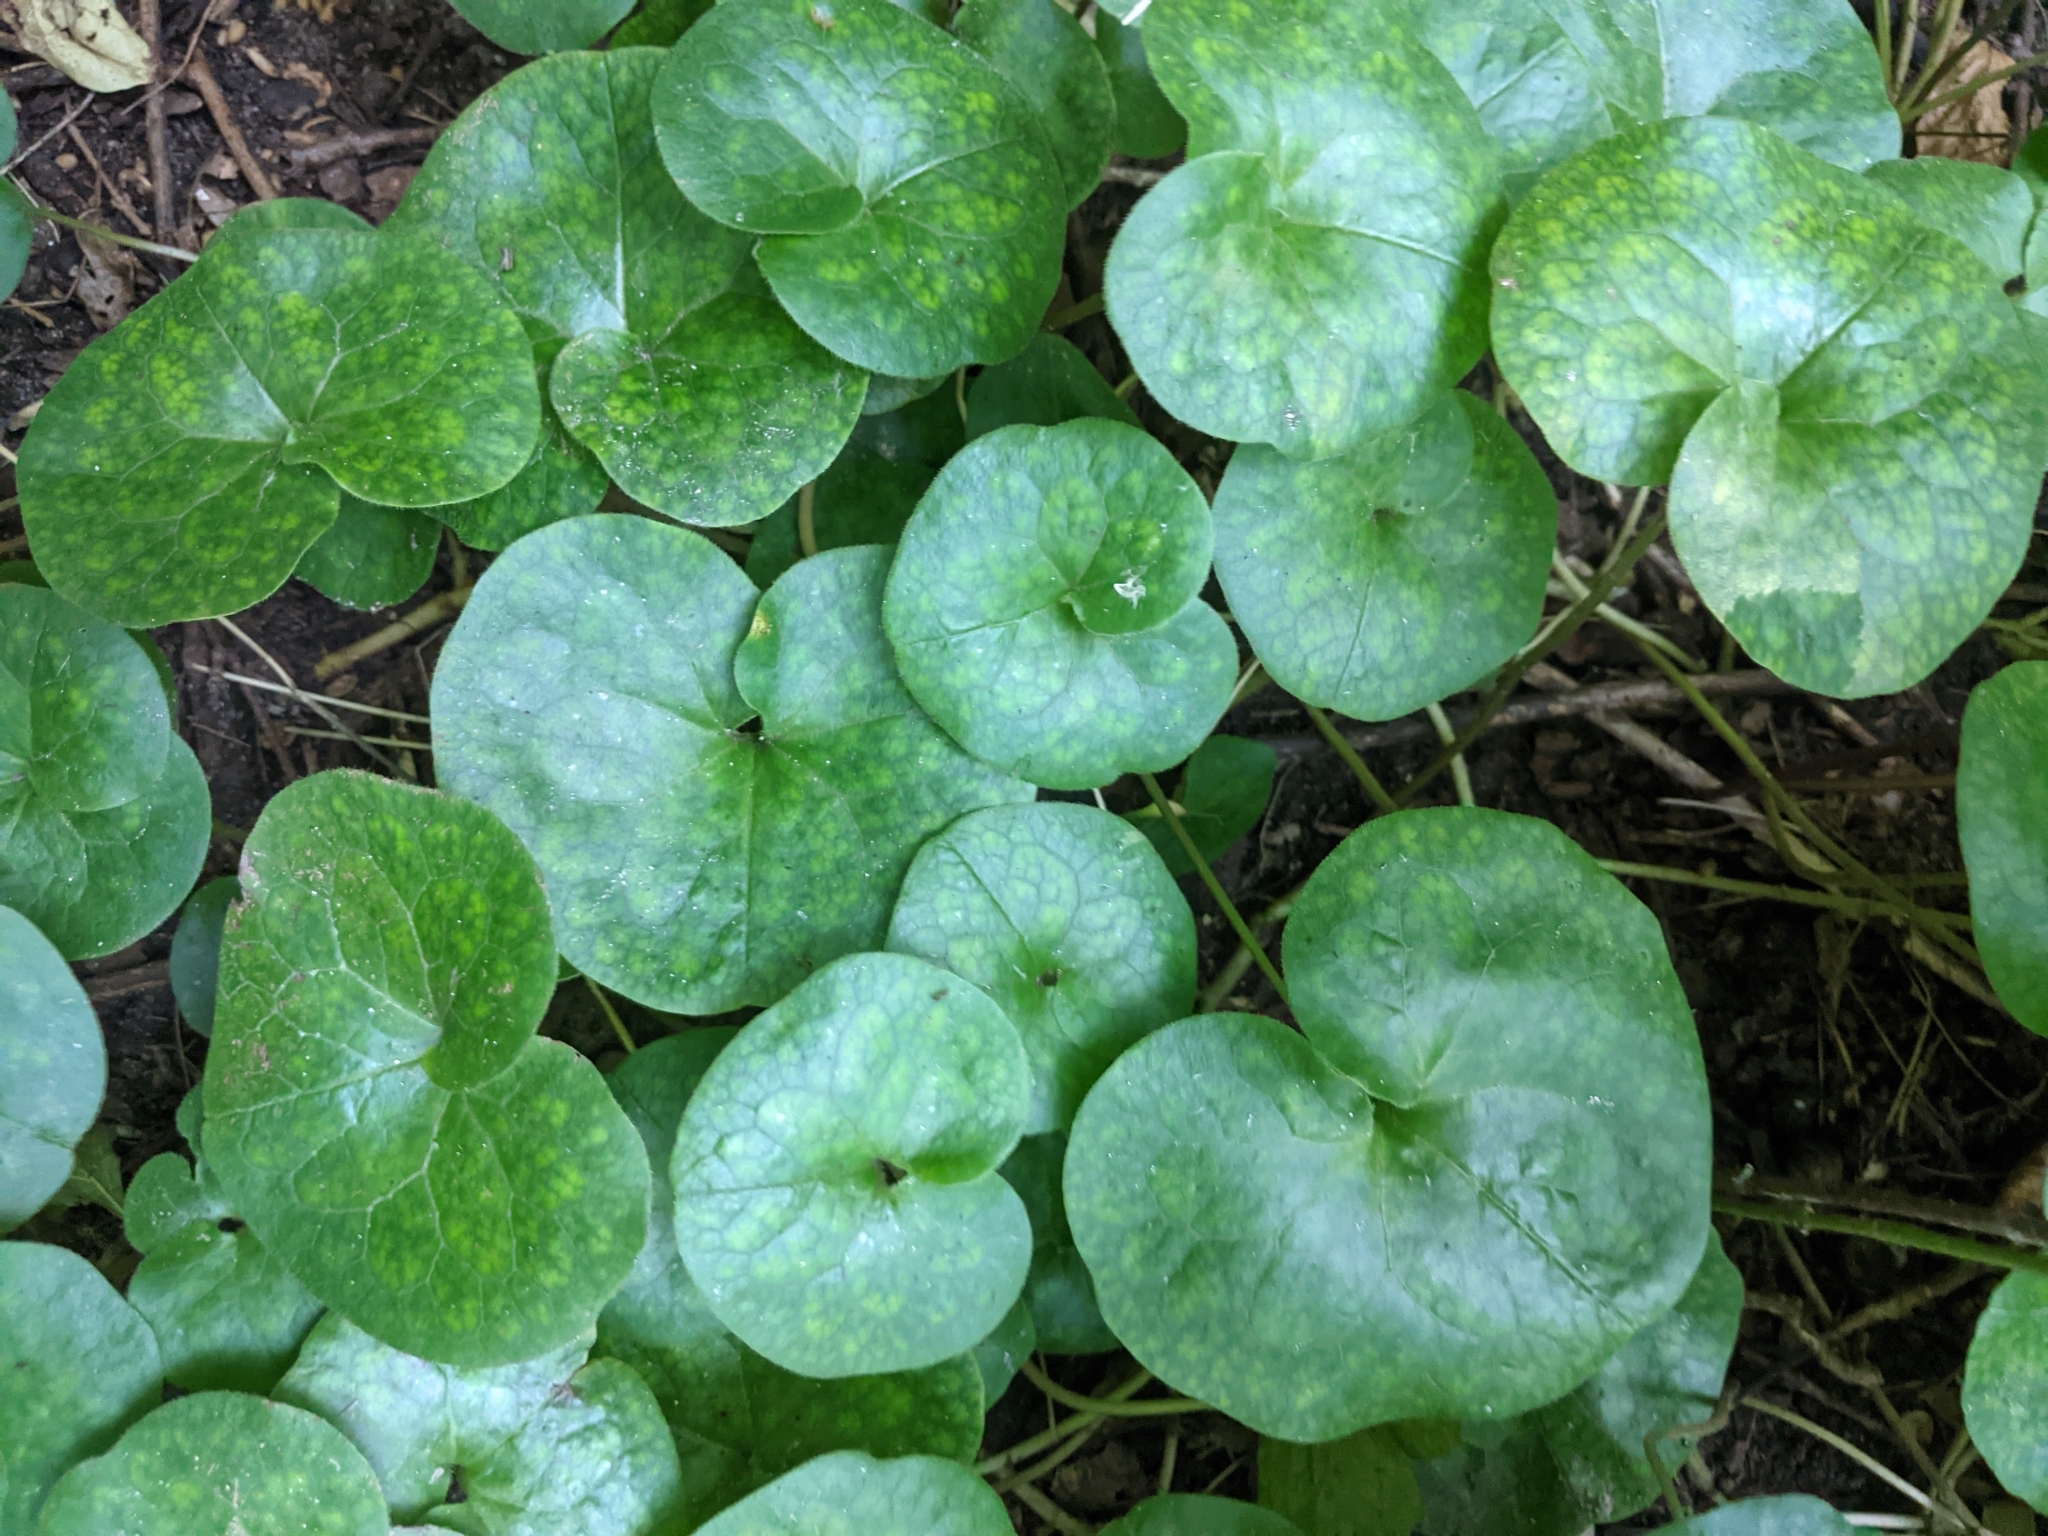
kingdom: Plantae
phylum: Tracheophyta
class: Magnoliopsida
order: Piperales
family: Aristolochiaceae
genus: Asarum
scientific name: Asarum europaeum
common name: Asarabacca
